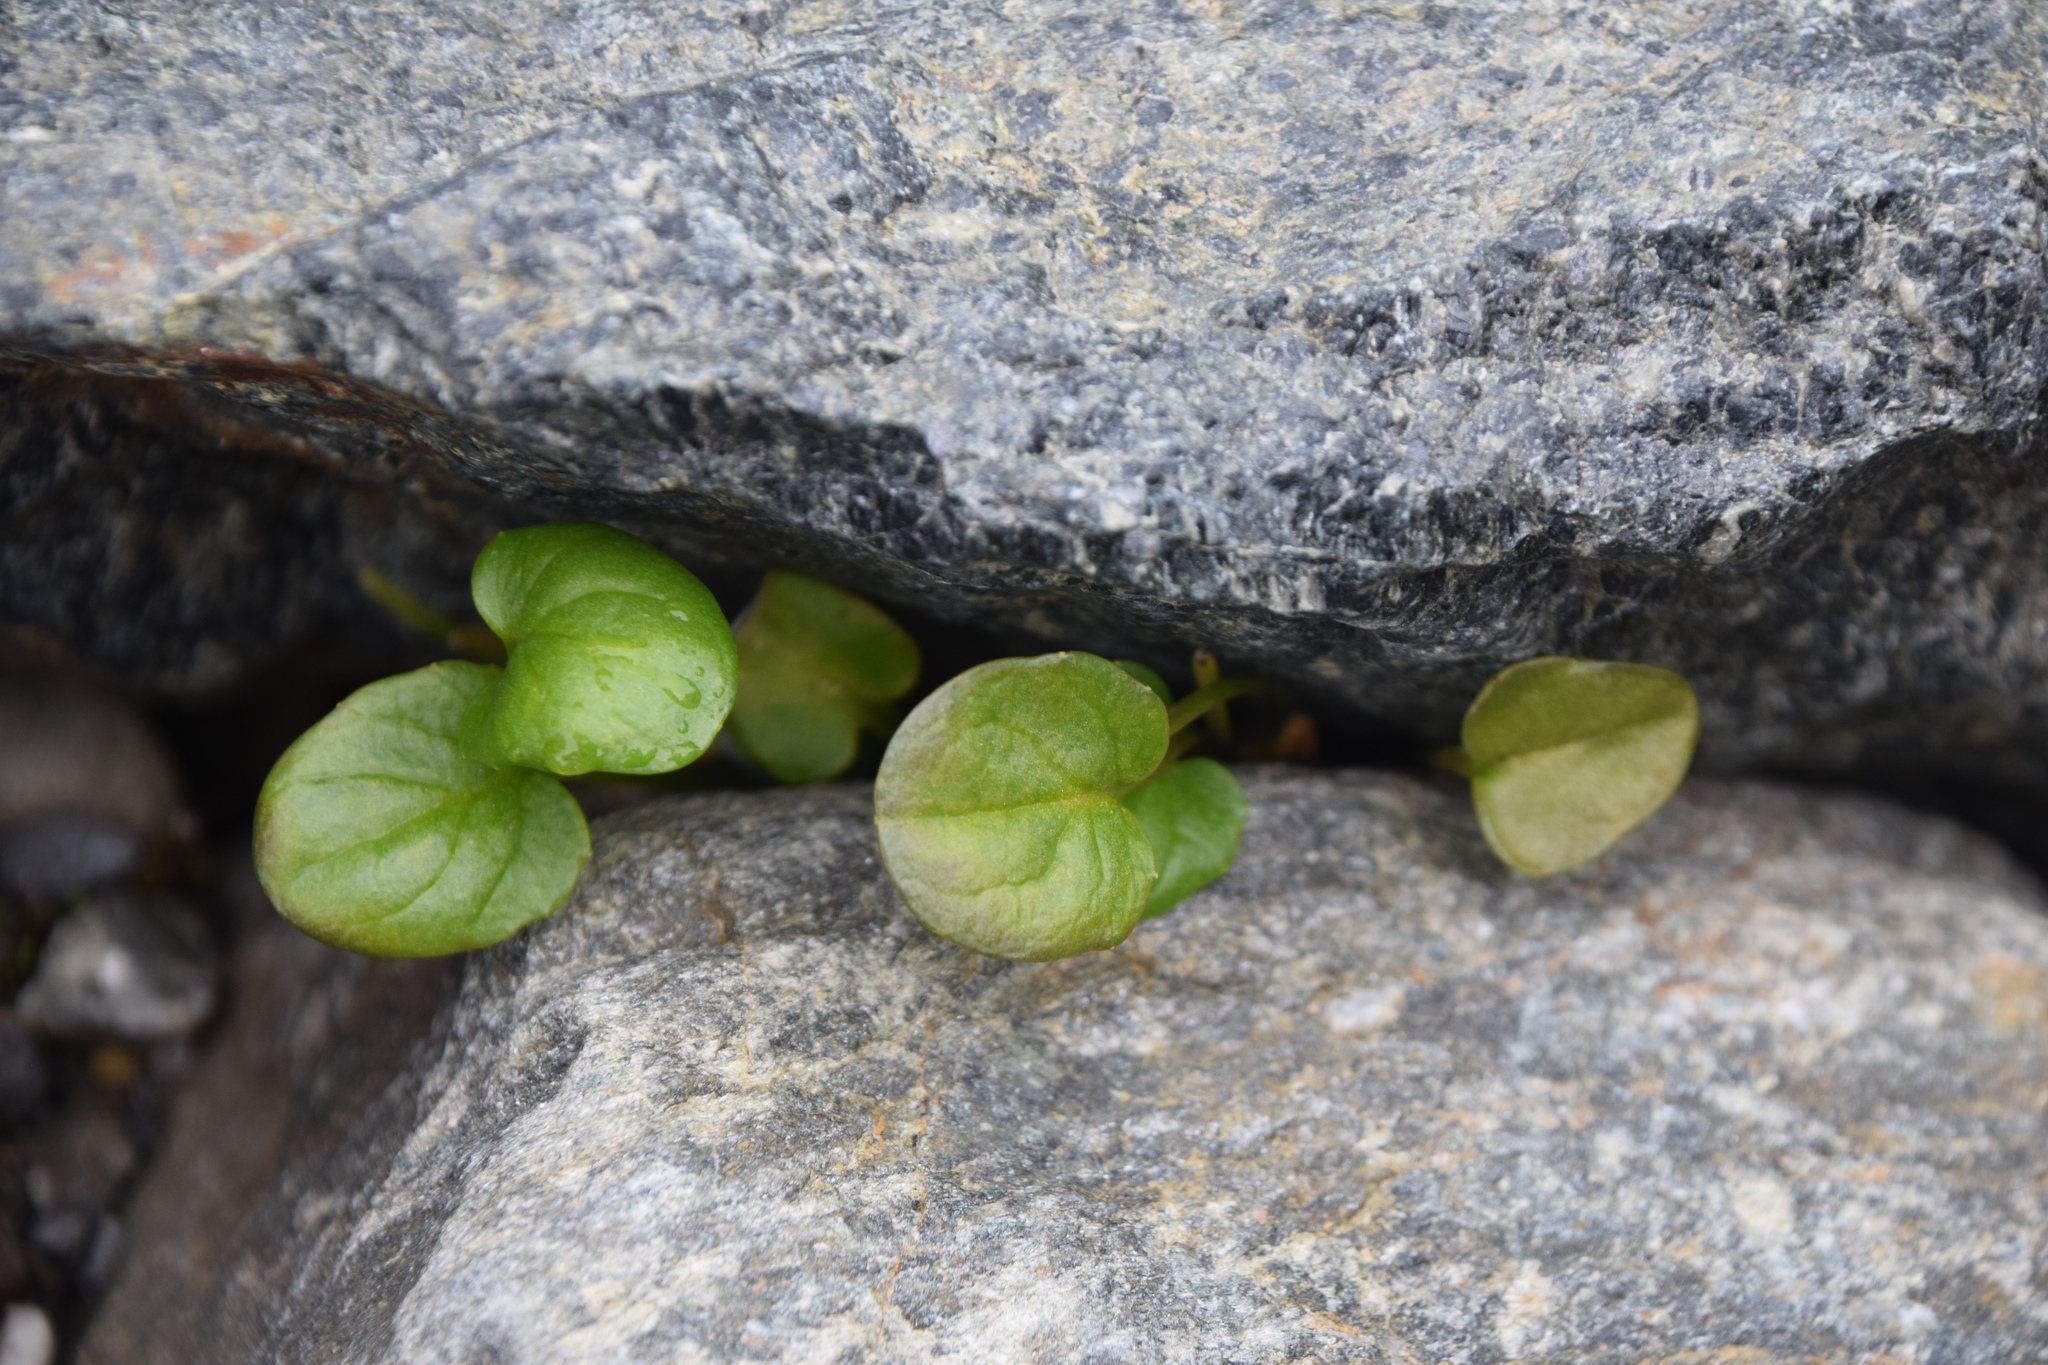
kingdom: Plantae
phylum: Tracheophyta
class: Magnoliopsida
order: Caryophyllales
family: Polygonaceae
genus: Oxyria
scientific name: Oxyria digyna
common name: Alpine mountain-sorrel
